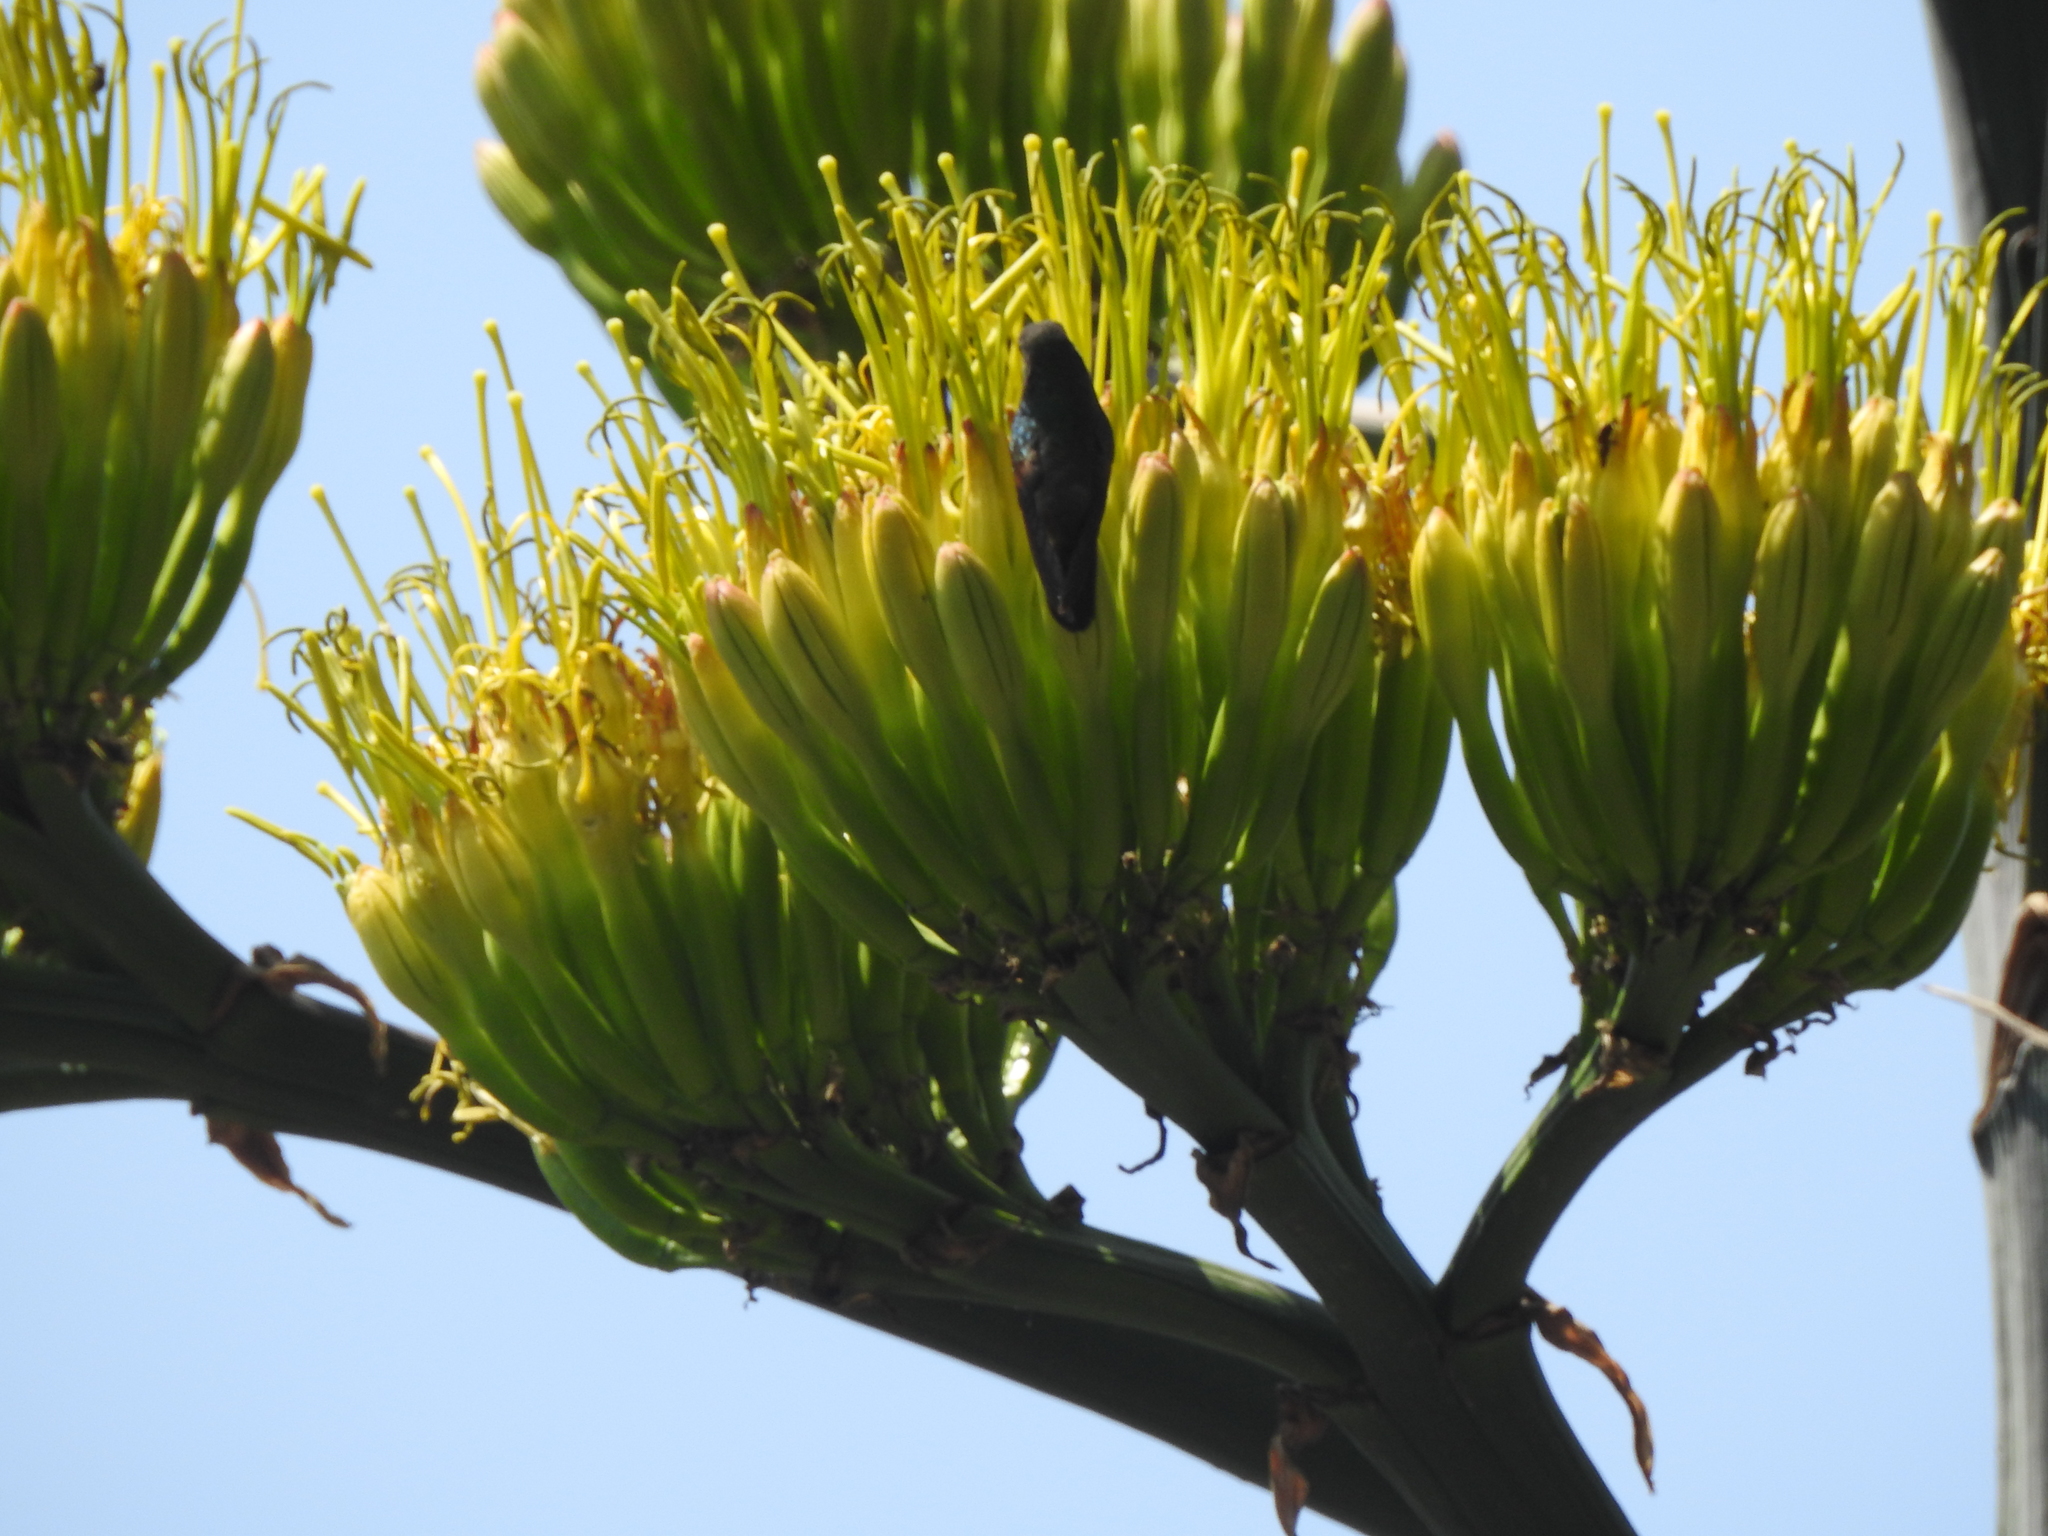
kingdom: Animalia
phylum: Chordata
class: Aves
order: Apodiformes
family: Trochilidae
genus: Eugenes
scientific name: Eugenes fulgens
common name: Magnificent hummingbird
